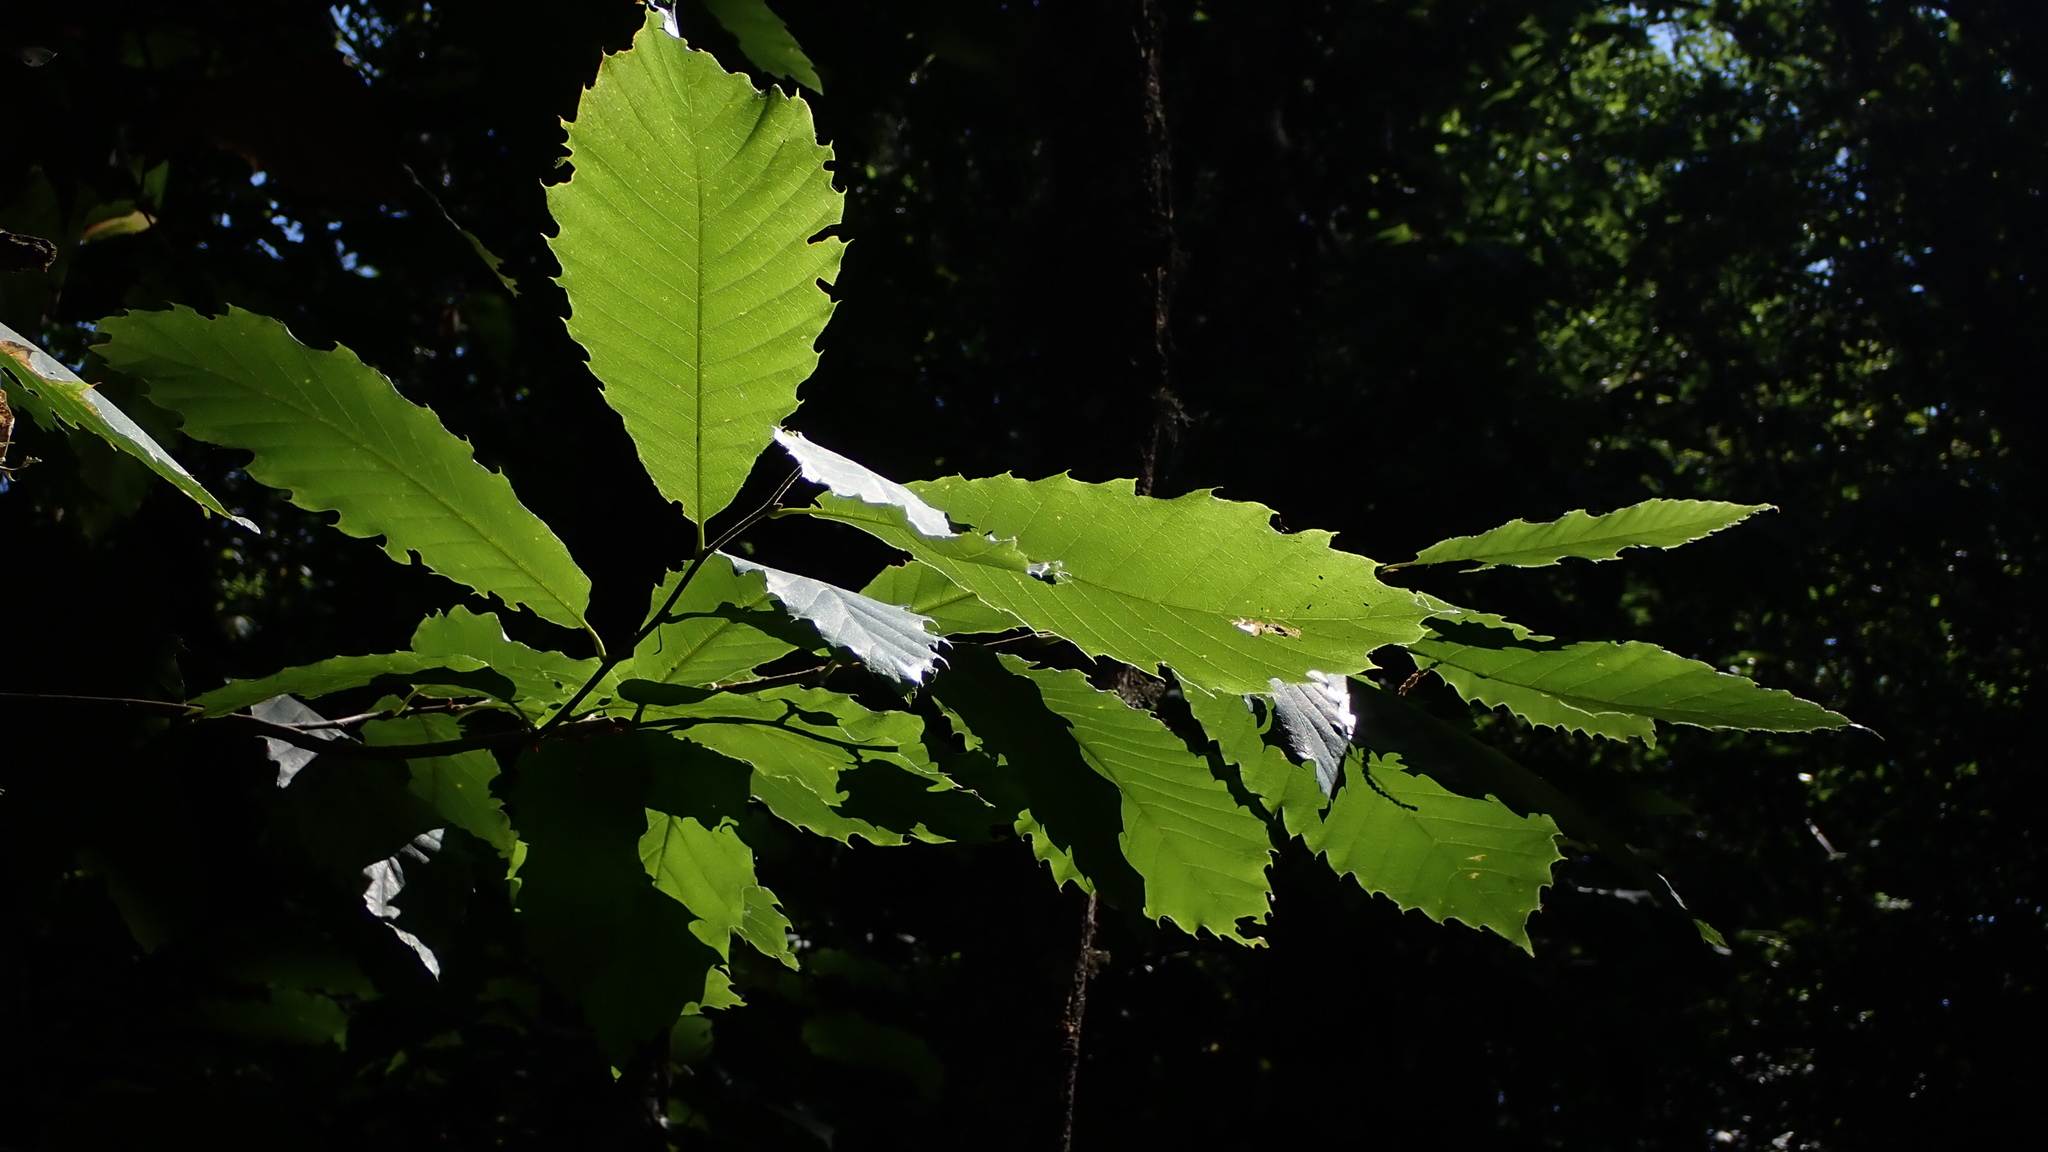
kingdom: Plantae
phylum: Tracheophyta
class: Magnoliopsida
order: Fagales
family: Fagaceae
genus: Castanea
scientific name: Castanea sativa
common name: Sweet chestnut
